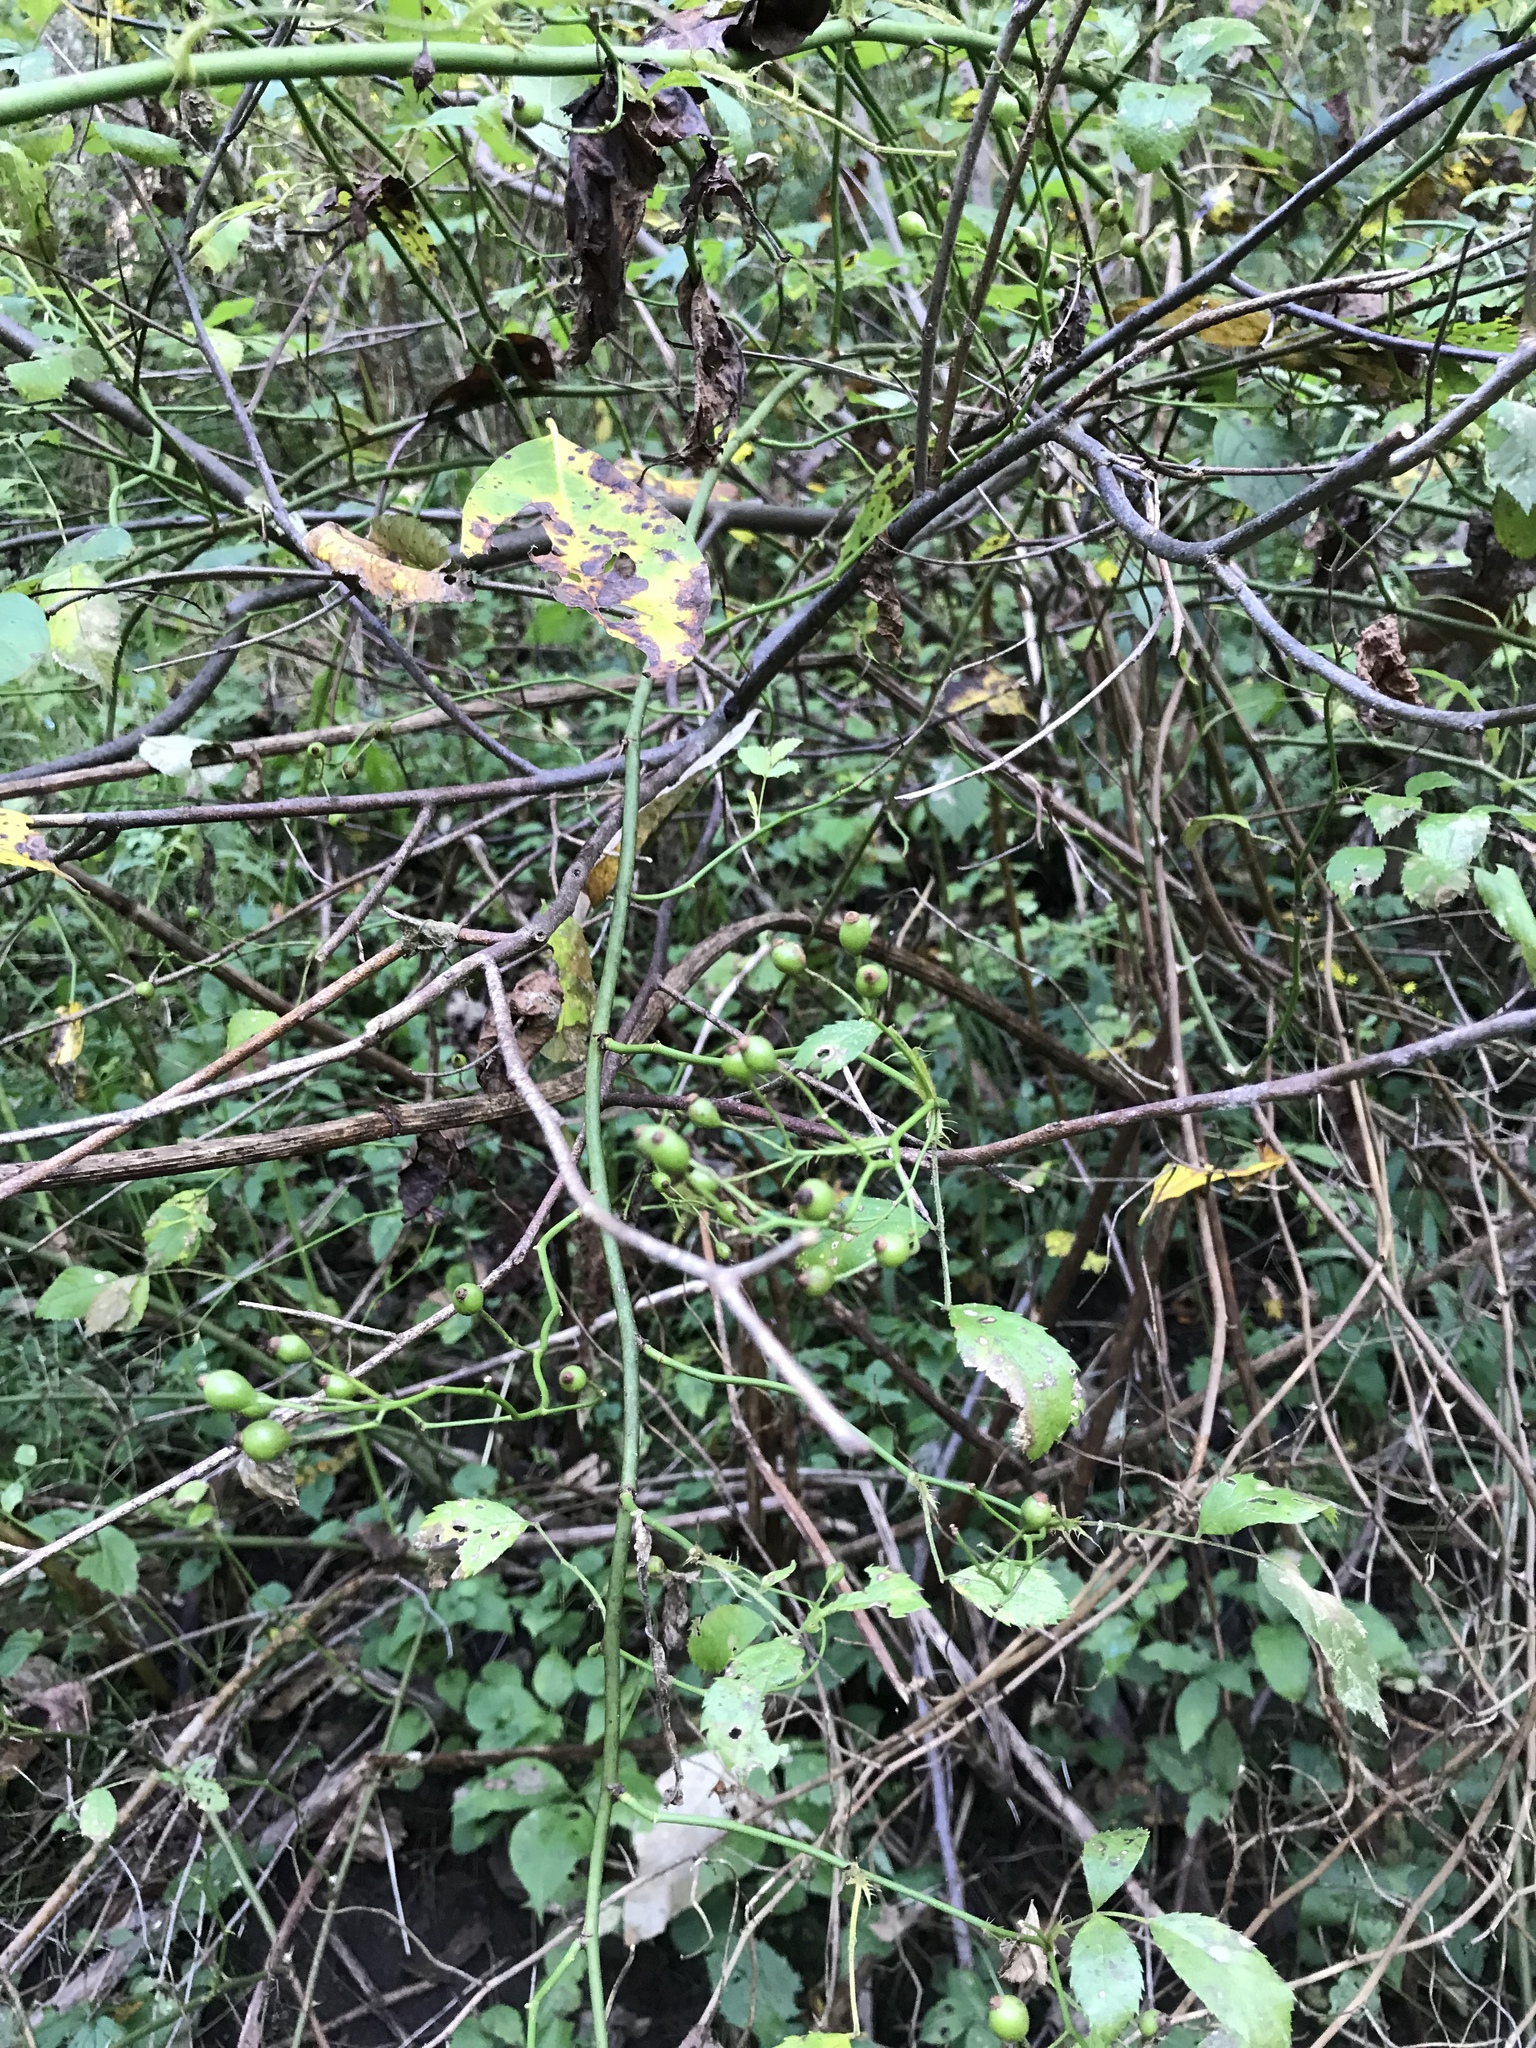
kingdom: Plantae
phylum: Tracheophyta
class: Magnoliopsida
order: Rosales
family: Rosaceae
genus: Rosa
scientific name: Rosa multiflora
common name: Multiflora rose
